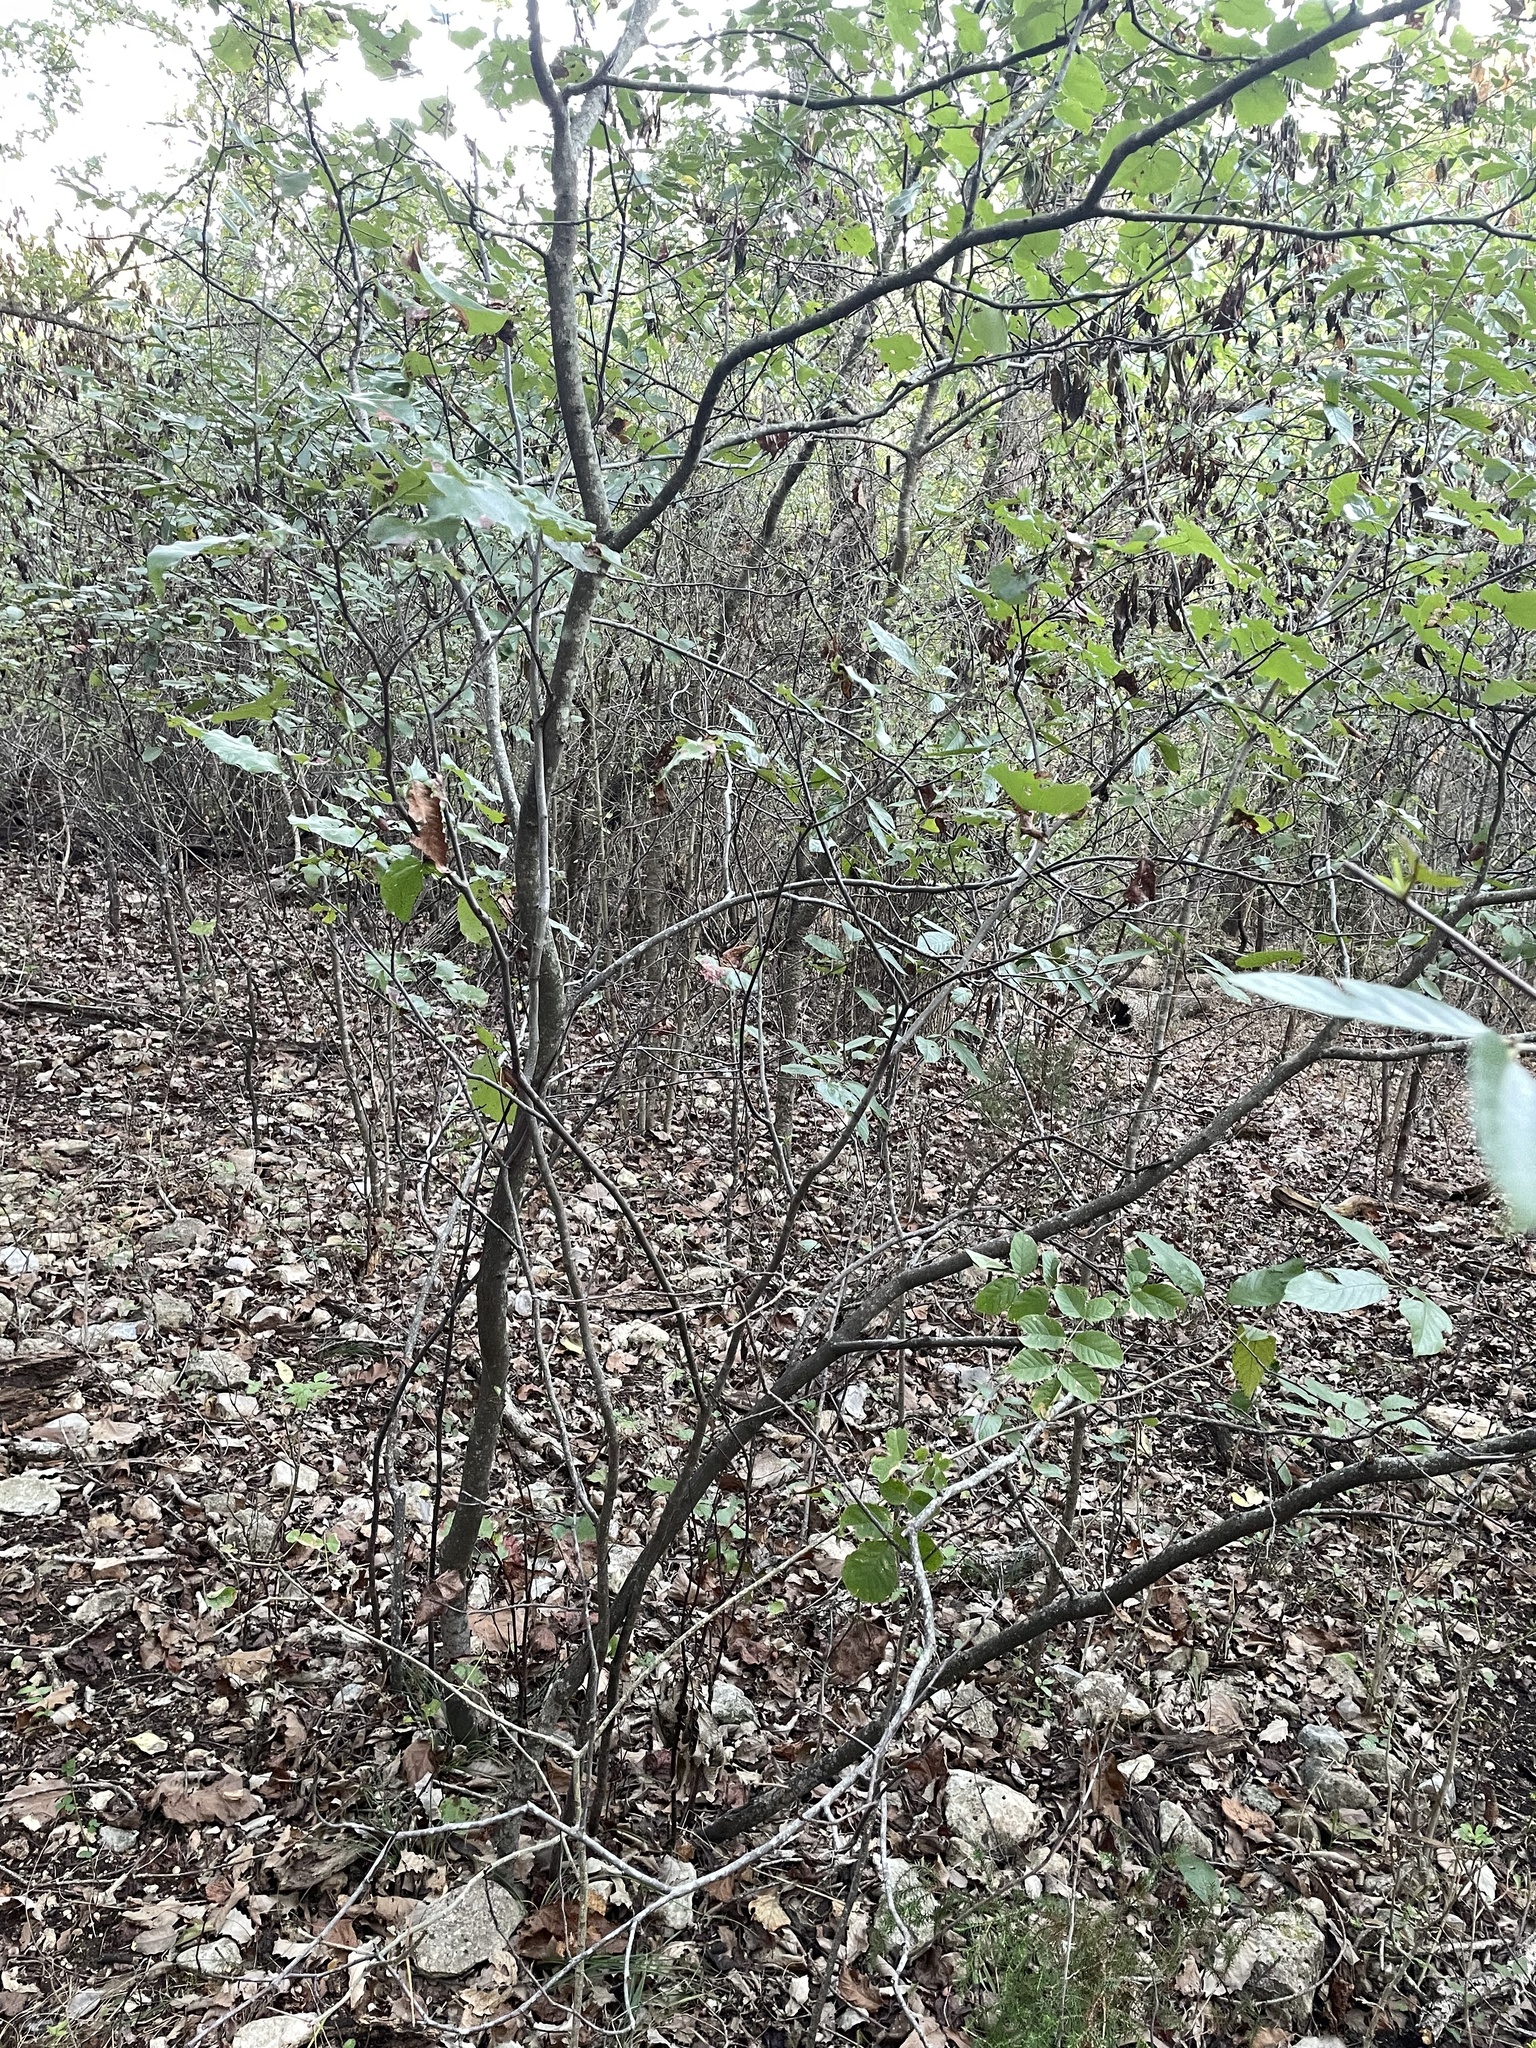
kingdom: Plantae
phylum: Tracheophyta
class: Magnoliopsida
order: Fabales
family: Fabaceae
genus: Cercis
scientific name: Cercis canadensis
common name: Eastern redbud
